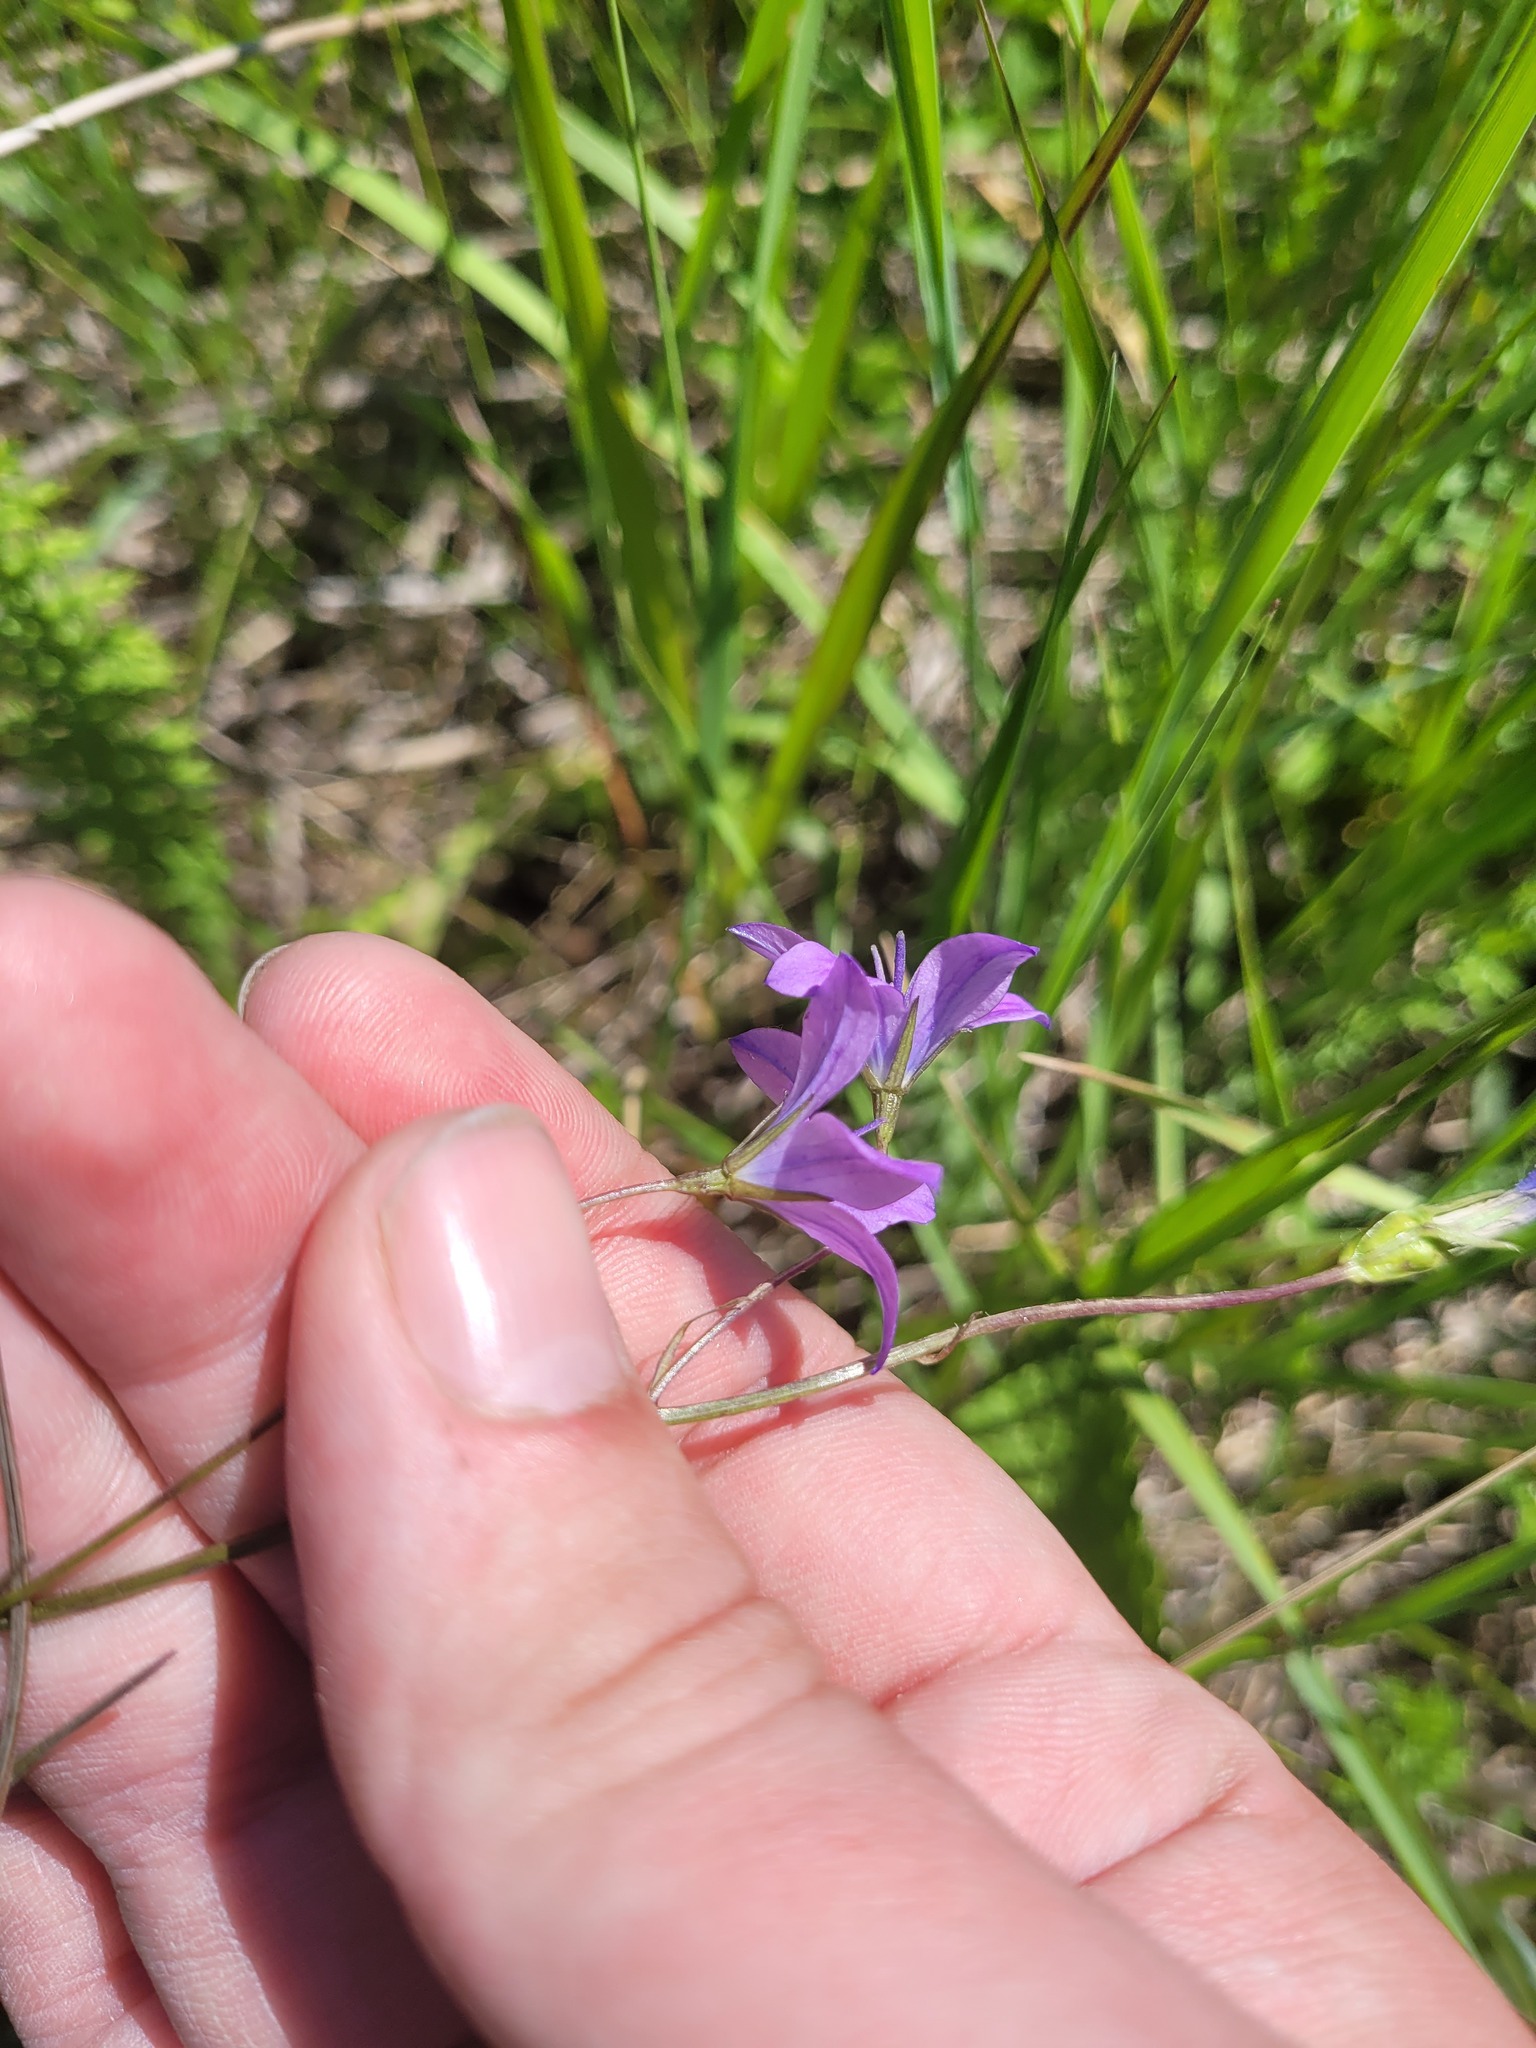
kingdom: Plantae
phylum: Tracheophyta
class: Magnoliopsida
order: Asterales
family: Campanulaceae
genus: Campanula
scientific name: Campanula stevenii
